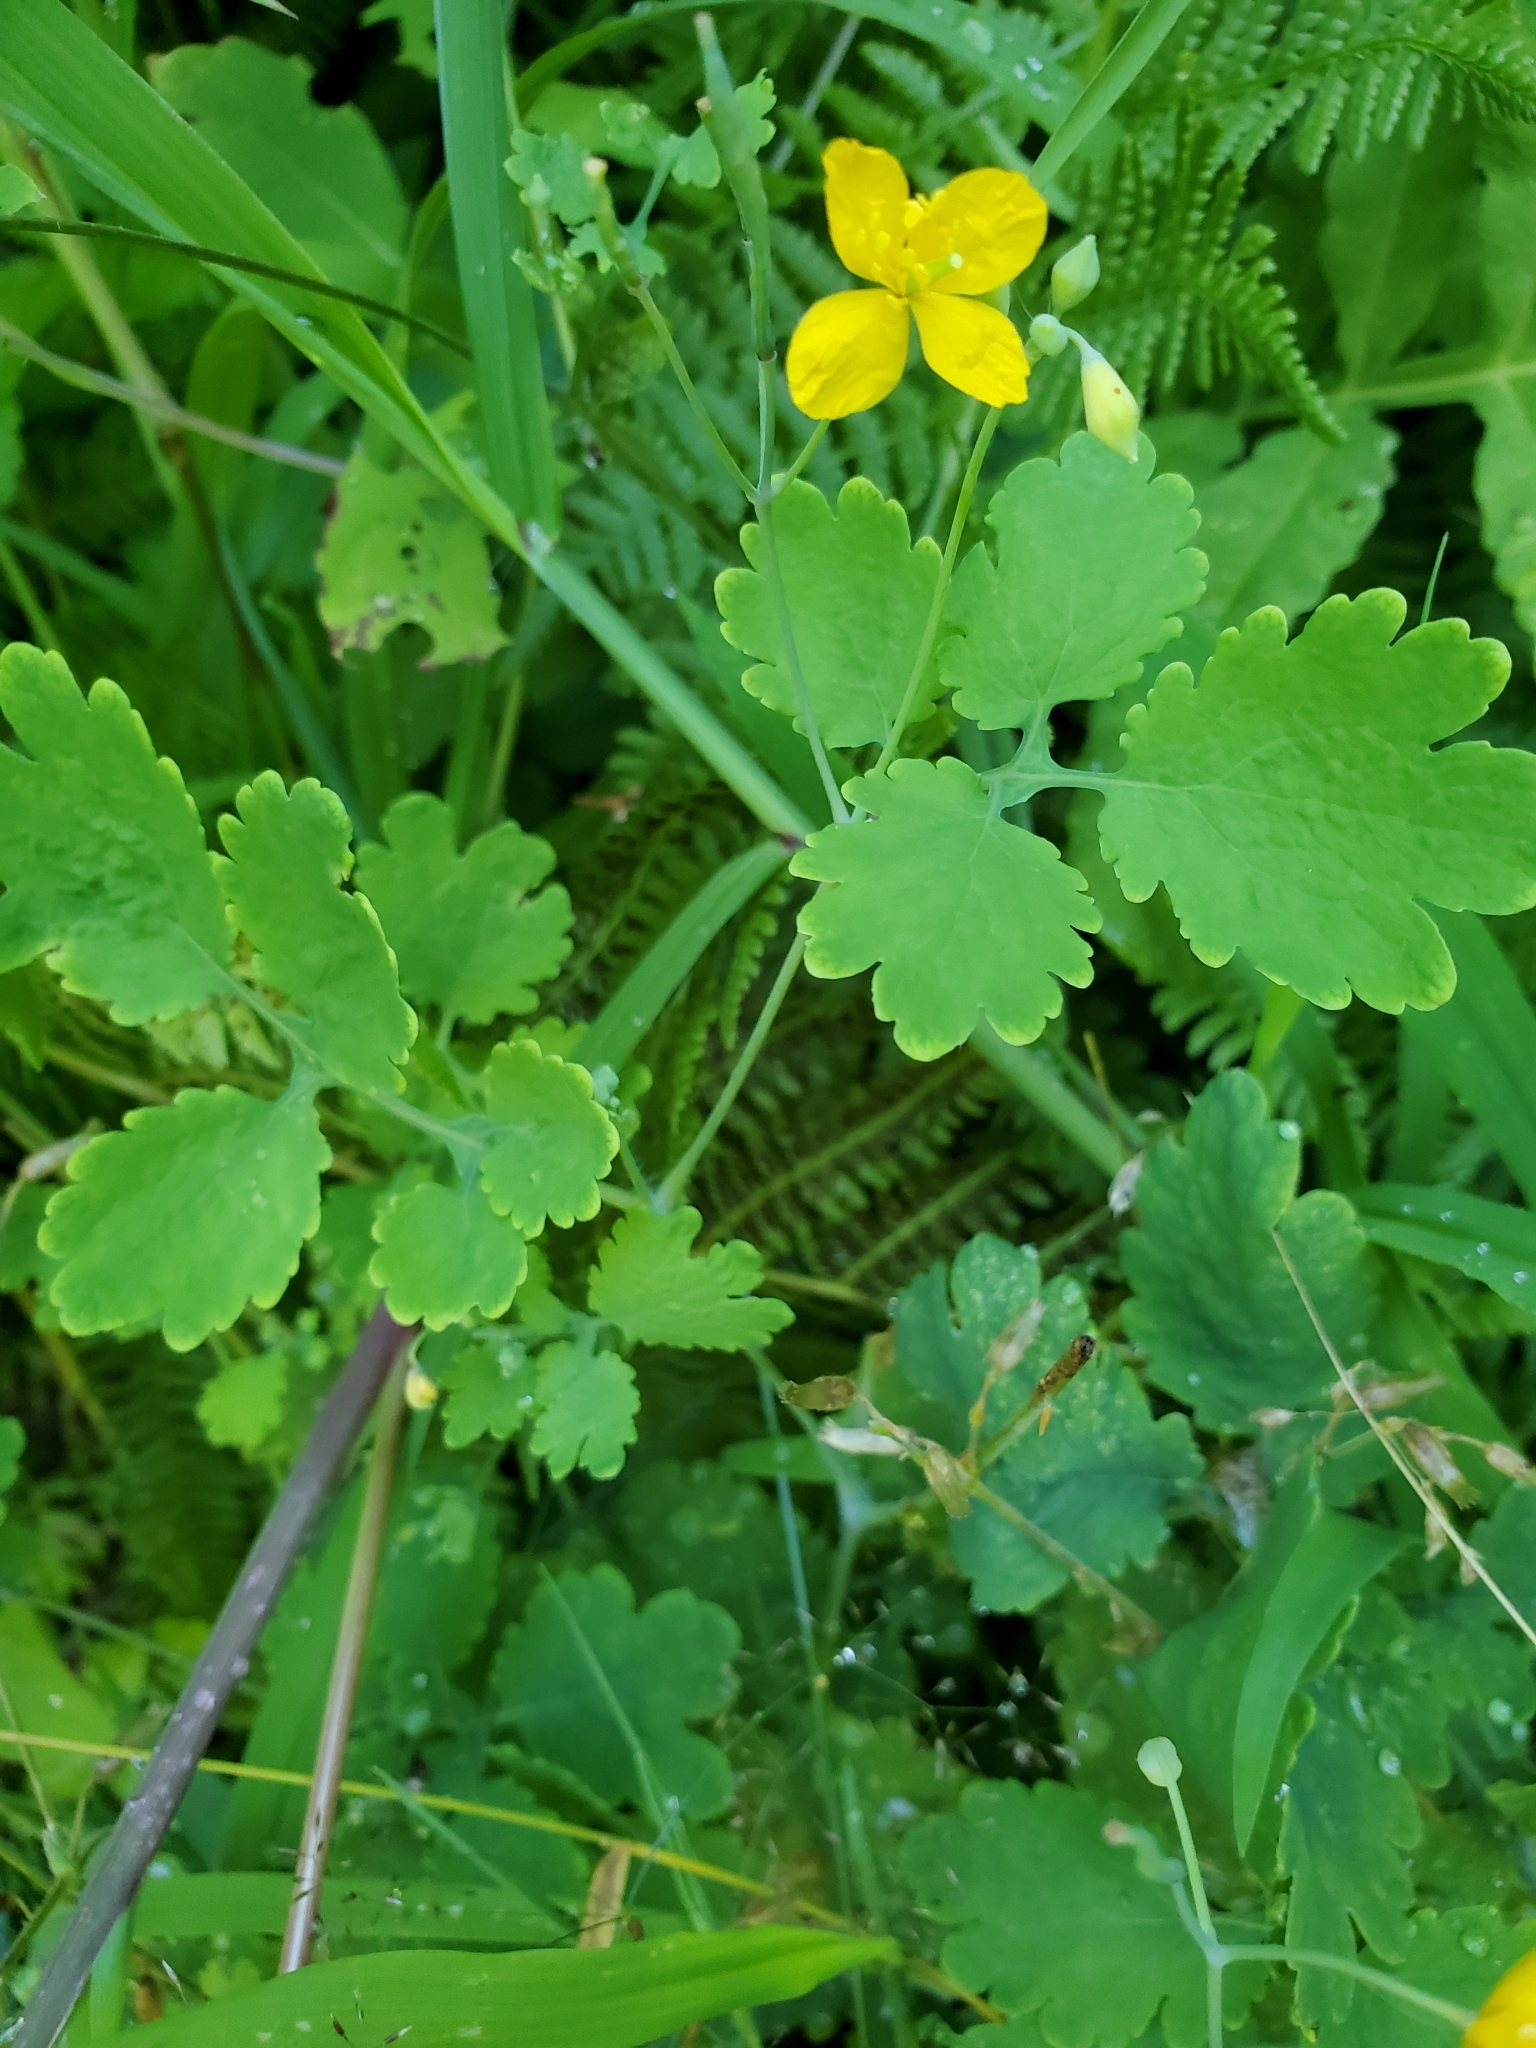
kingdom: Plantae
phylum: Tracheophyta
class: Magnoliopsida
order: Ranunculales
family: Papaveraceae
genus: Chelidonium
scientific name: Chelidonium majus
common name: Greater celandine
